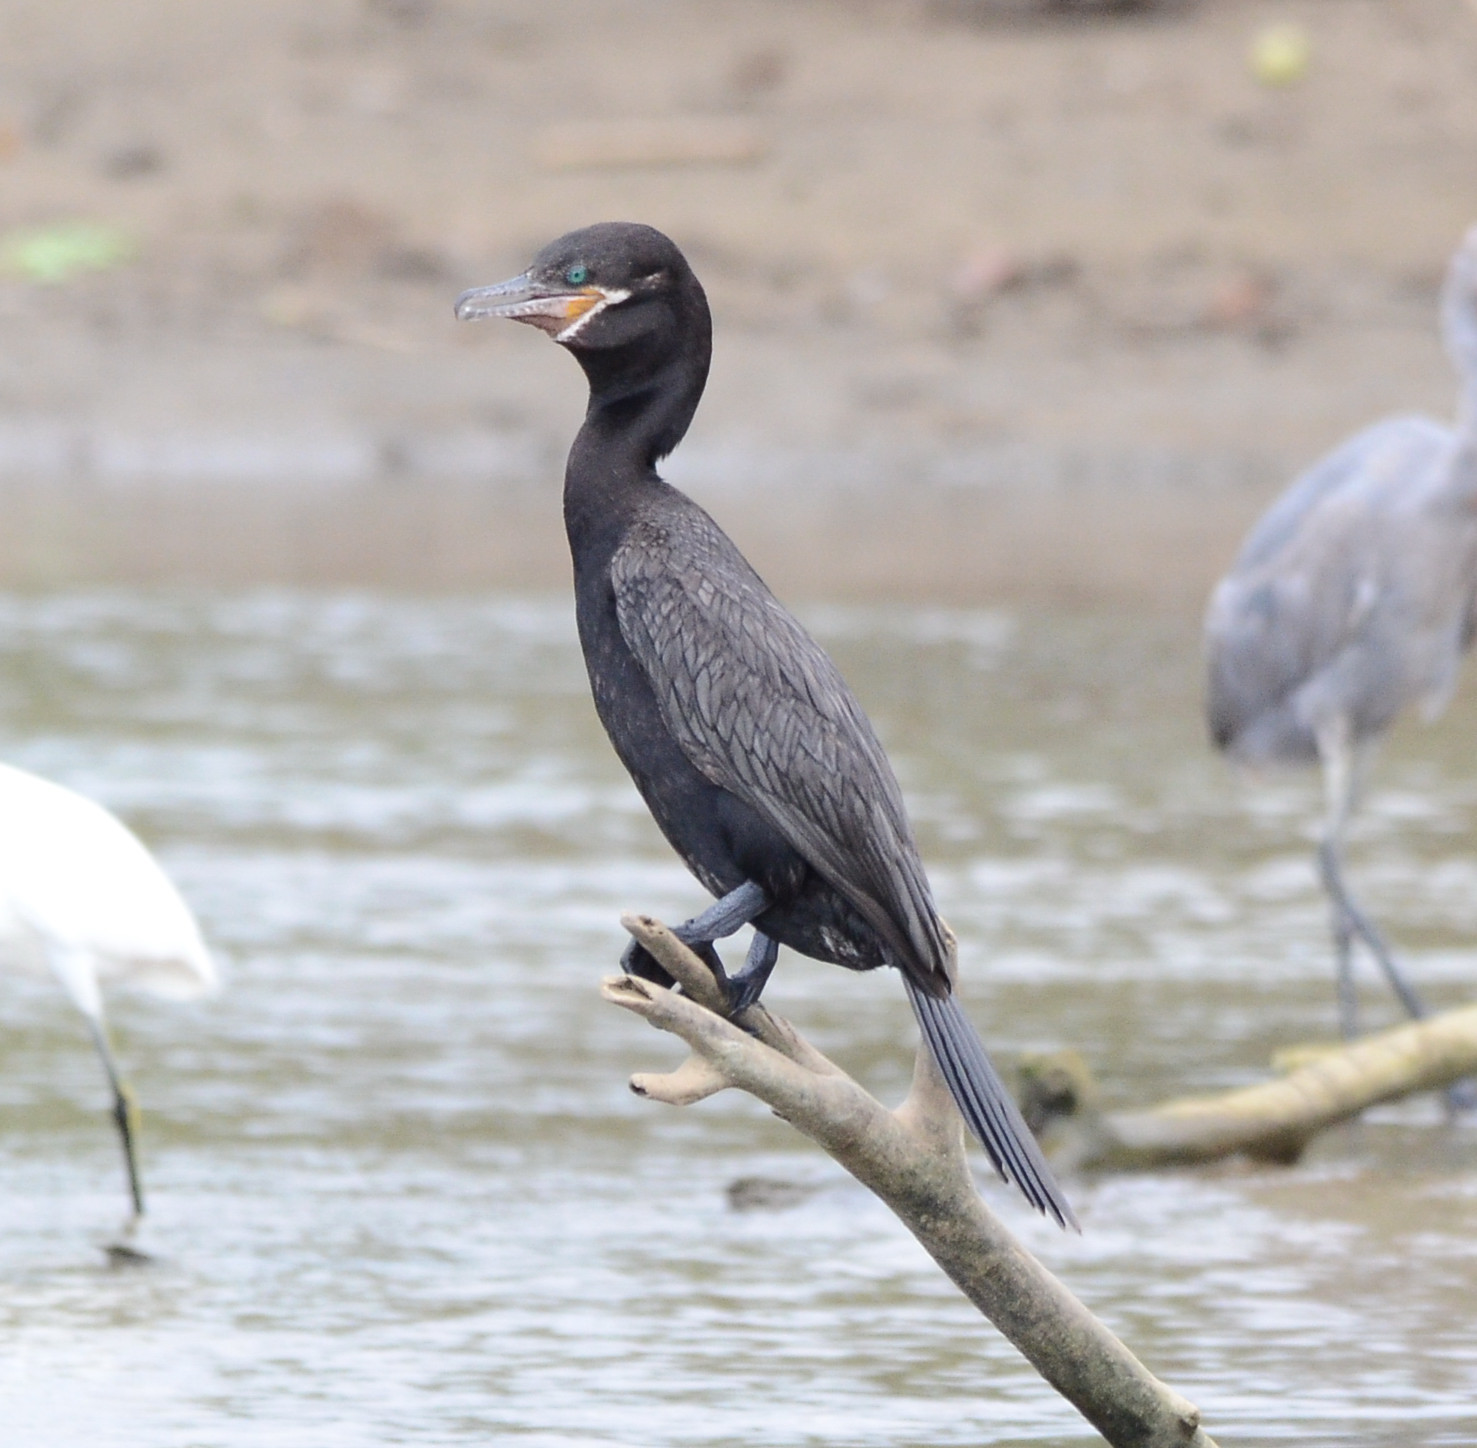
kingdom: Animalia
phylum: Chordata
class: Aves
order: Suliformes
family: Phalacrocoracidae
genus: Phalacrocorax
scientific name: Phalacrocorax brasilianus
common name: Neotropic cormorant
